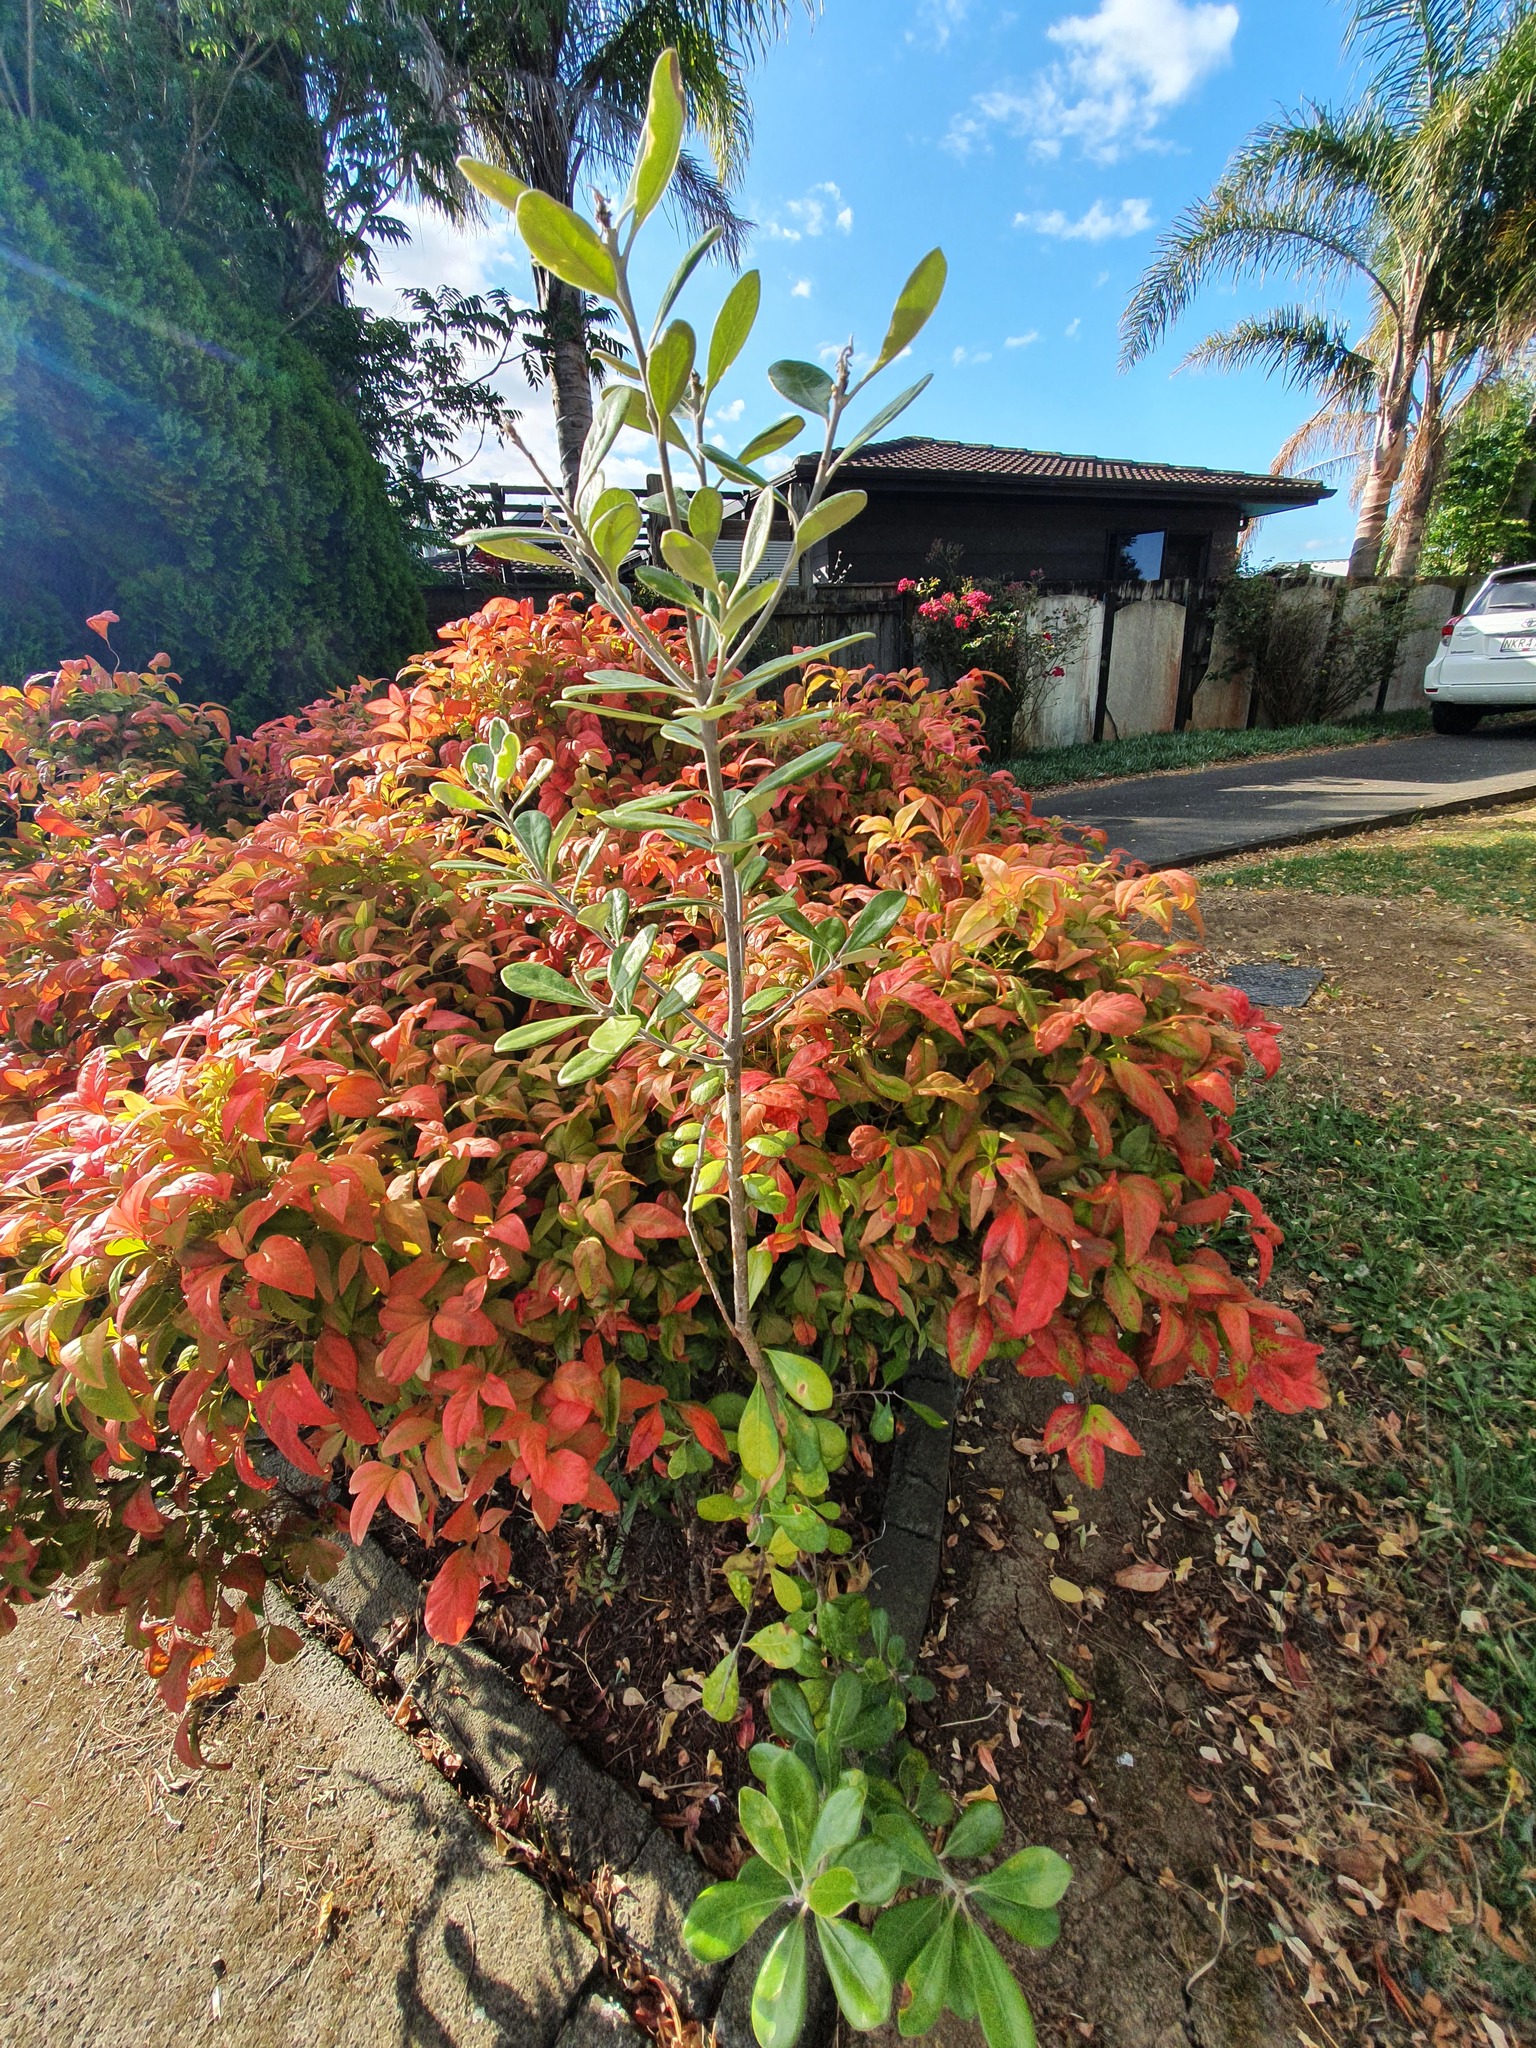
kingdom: Plantae
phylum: Tracheophyta
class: Magnoliopsida
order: Apiales
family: Pittosporaceae
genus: Pittosporum
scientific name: Pittosporum crassifolium
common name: Karo
